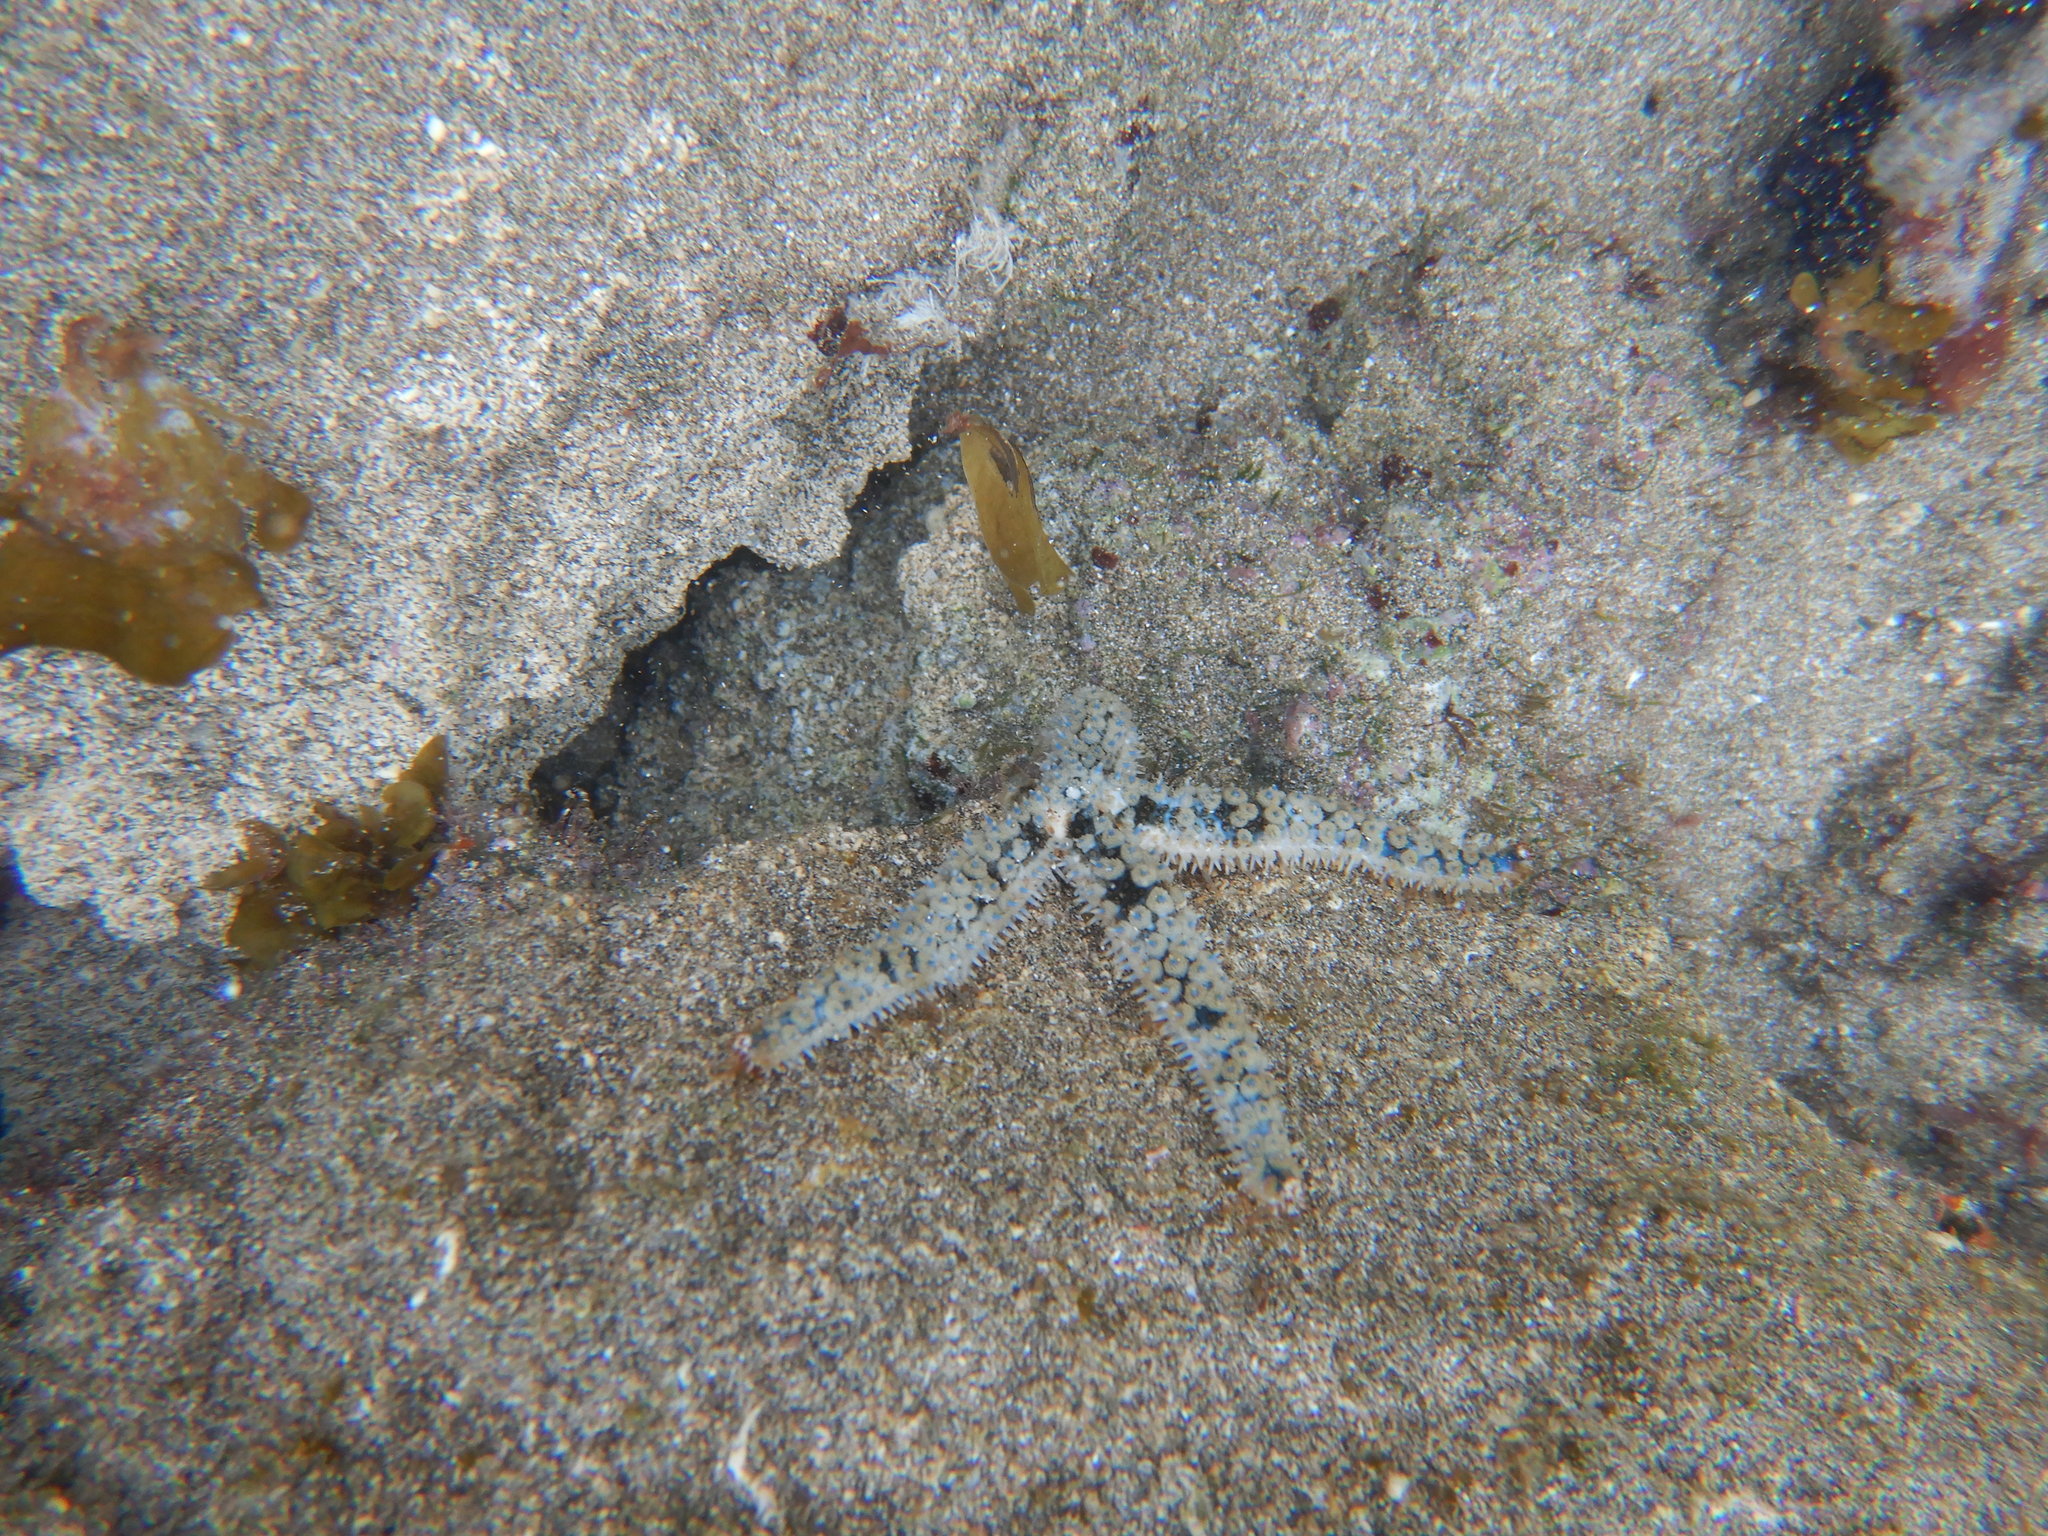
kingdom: Animalia
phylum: Echinodermata
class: Asteroidea
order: Forcipulatida
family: Asteriidae
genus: Coscinasterias
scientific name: Coscinasterias tenuispina
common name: Blue spiny starfish
